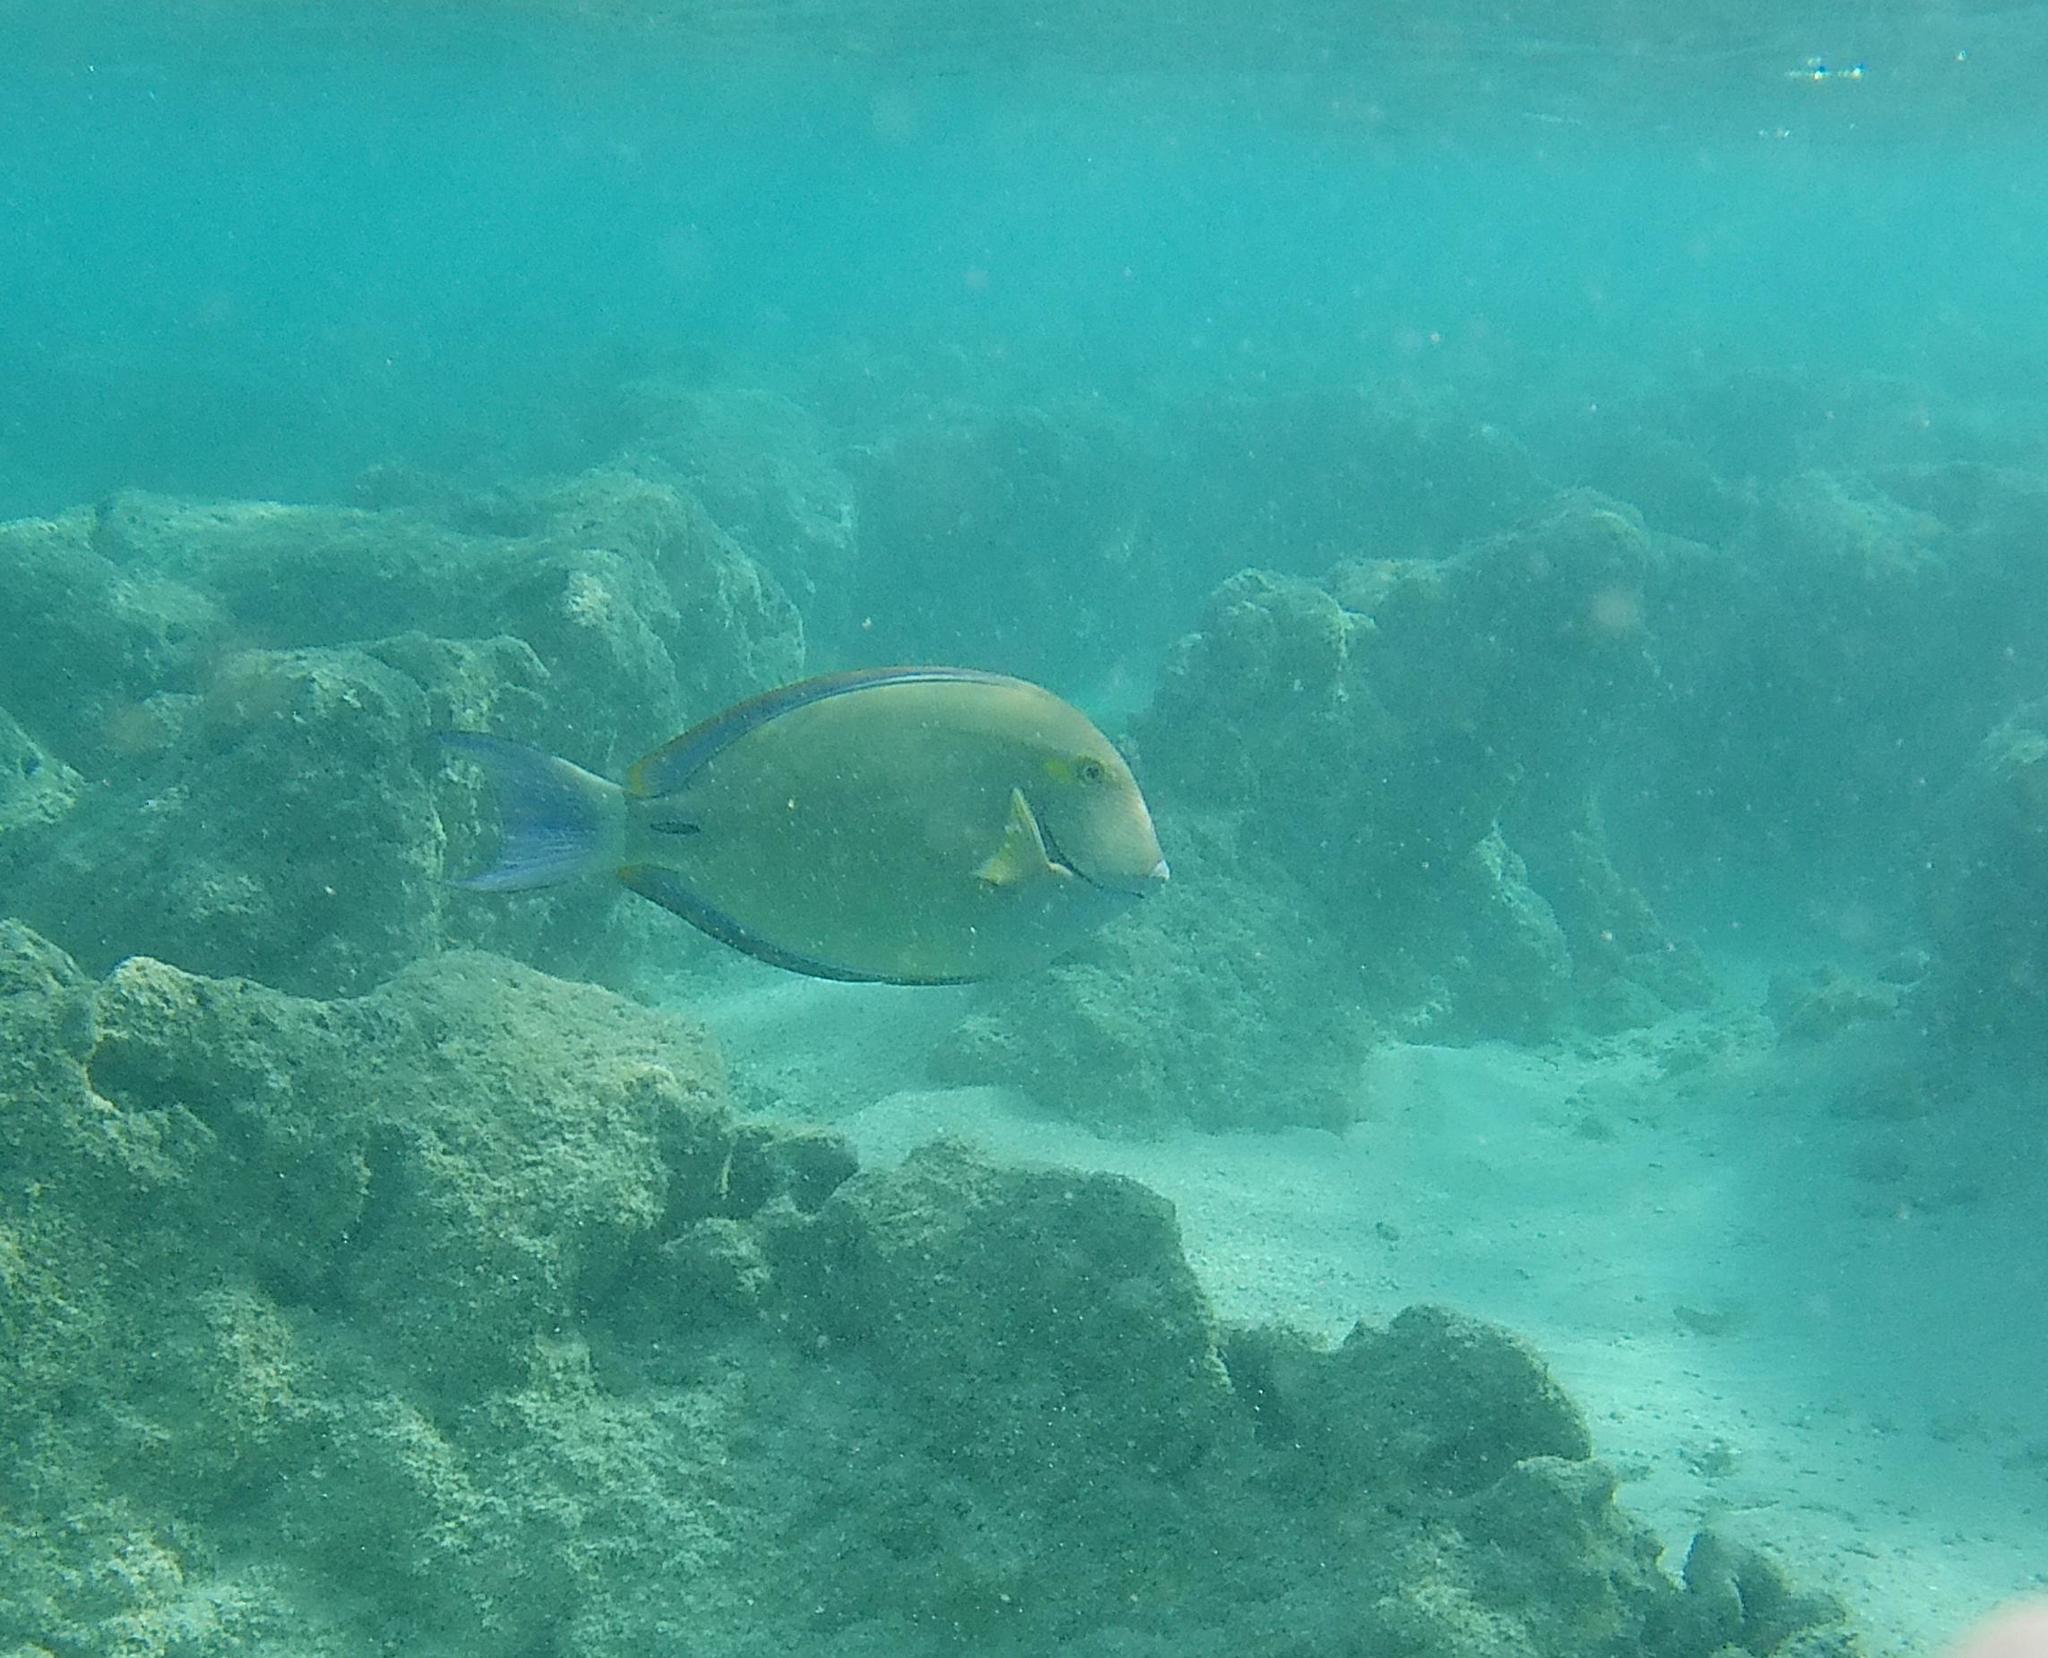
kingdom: Animalia
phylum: Chordata
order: Perciformes
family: Acanthuridae
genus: Acanthurus
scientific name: Acanthurus blochii
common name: Blue-banded pualu
